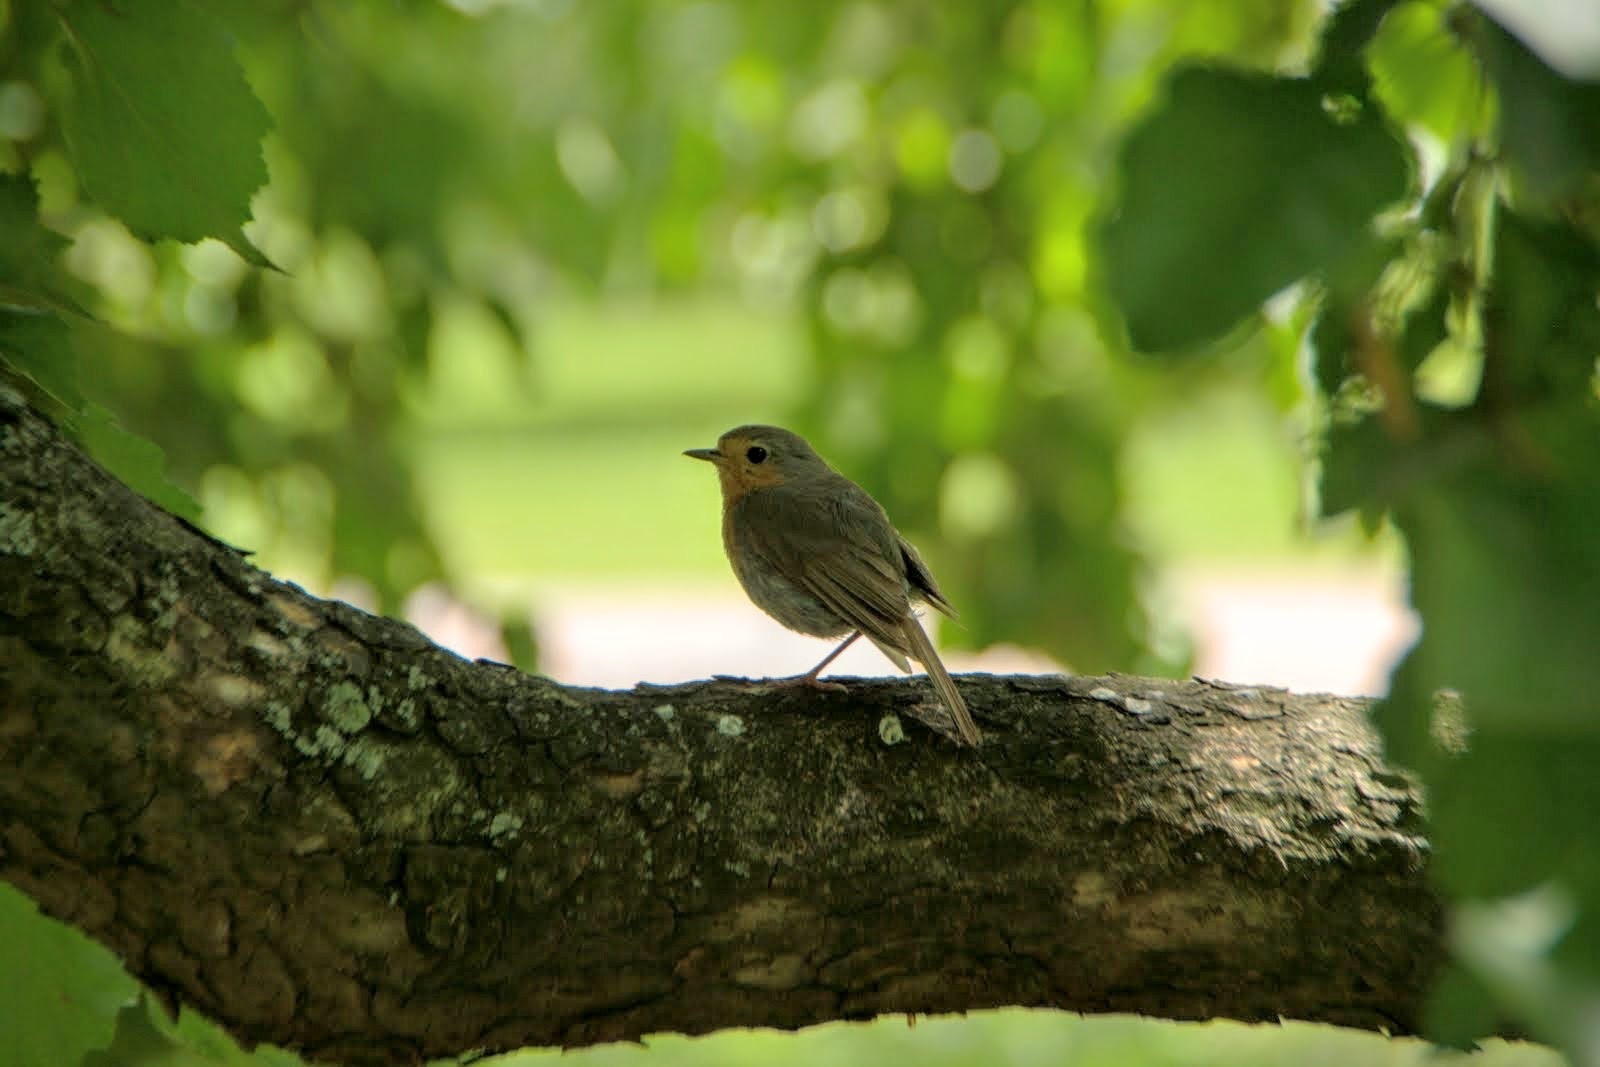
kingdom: Animalia
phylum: Chordata
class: Aves
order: Passeriformes
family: Muscicapidae
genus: Erithacus
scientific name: Erithacus rubecula
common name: European robin
